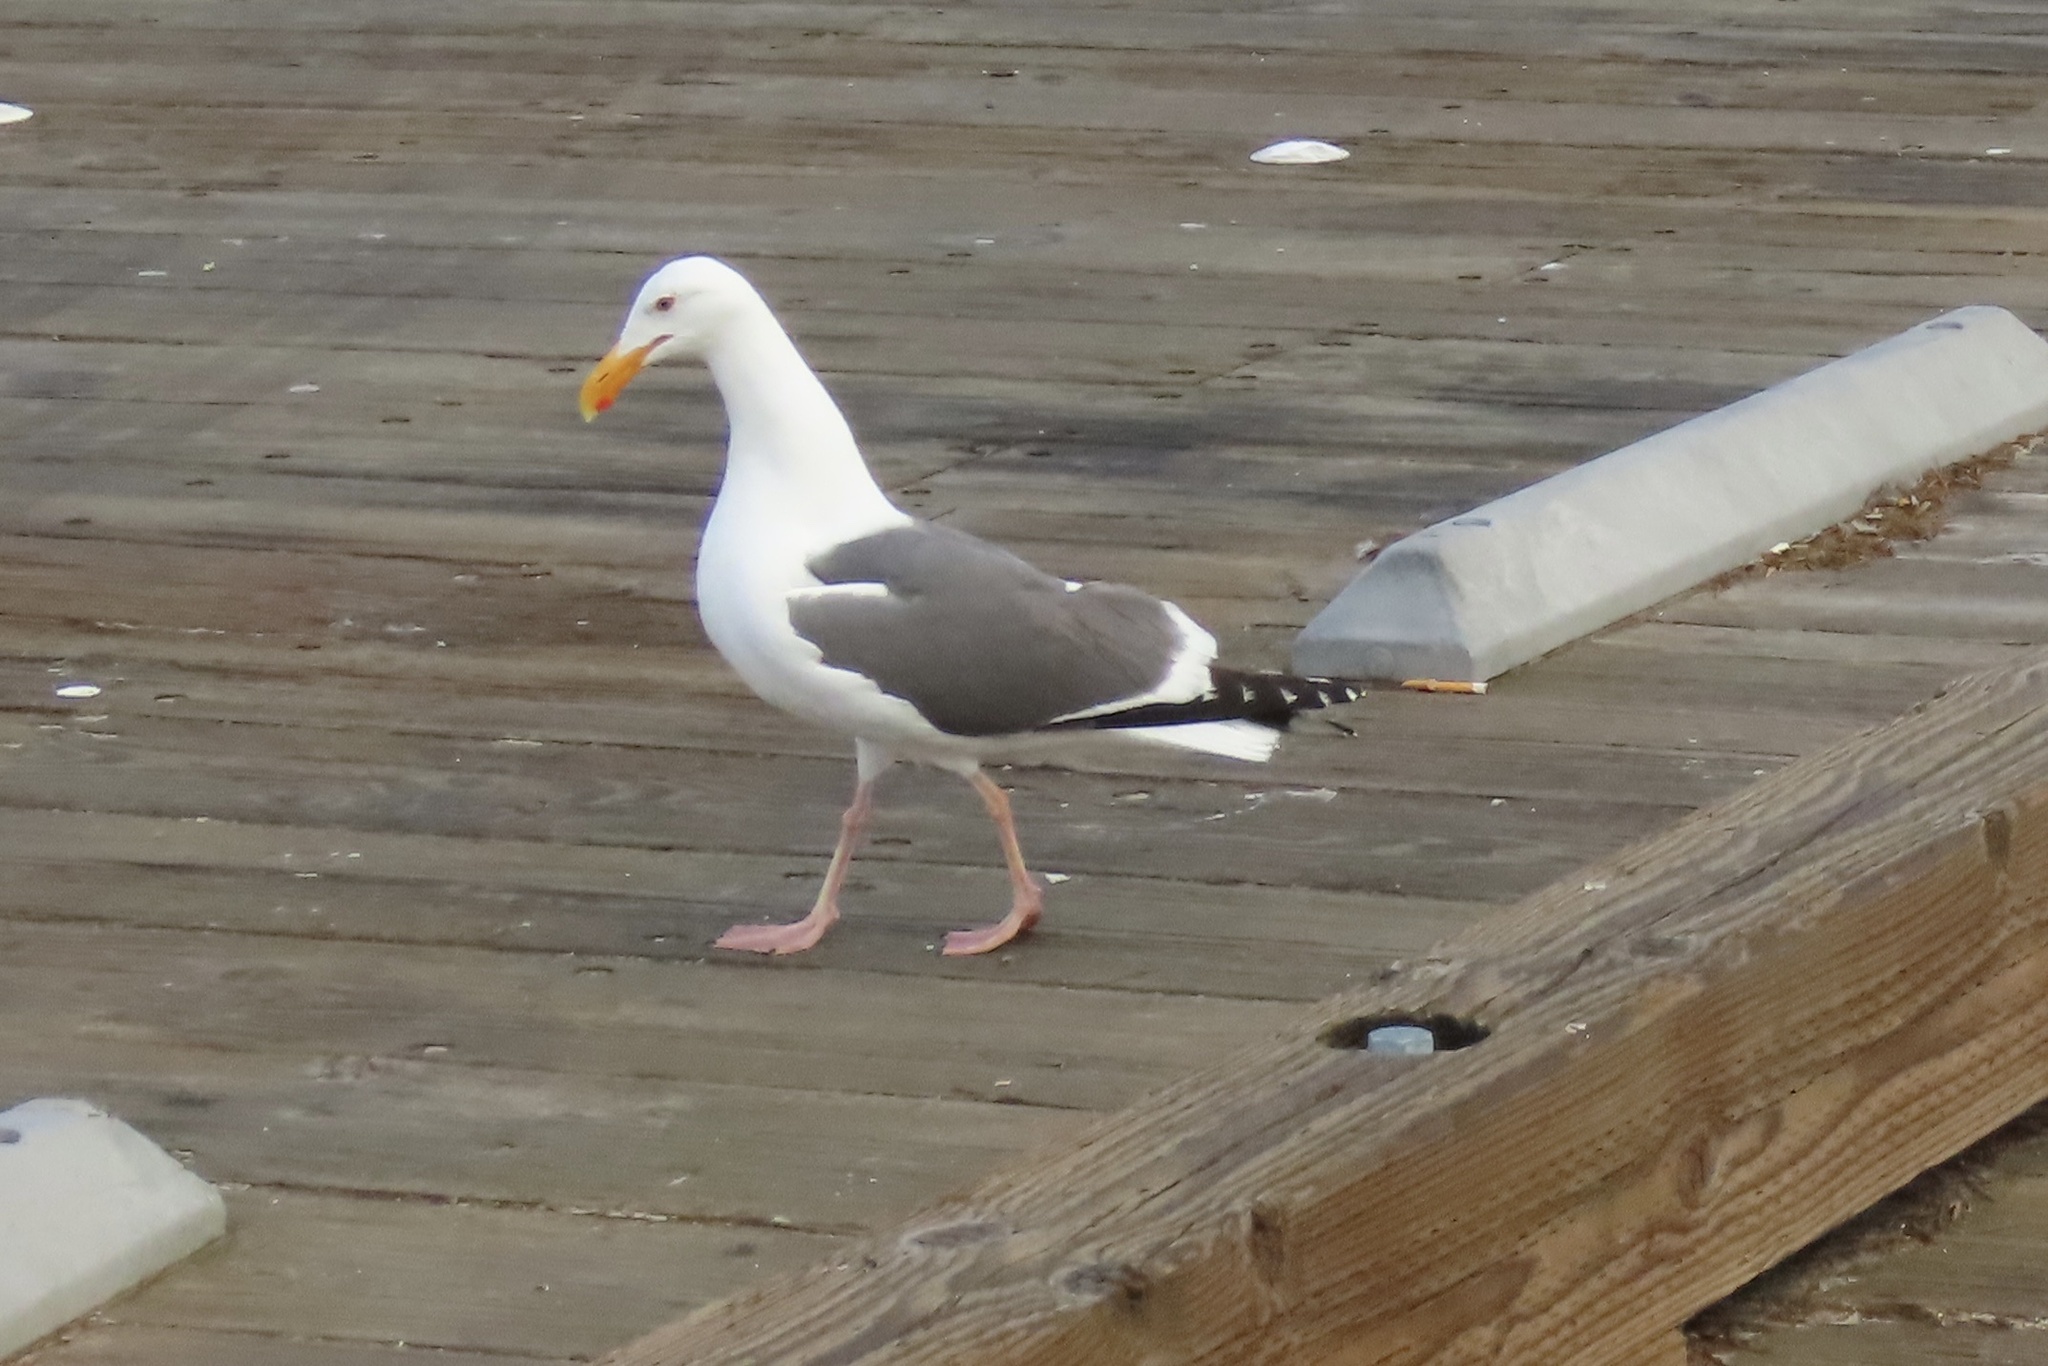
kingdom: Animalia
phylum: Chordata
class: Aves
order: Charadriiformes
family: Laridae
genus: Larus
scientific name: Larus occidentalis
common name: Western gull
